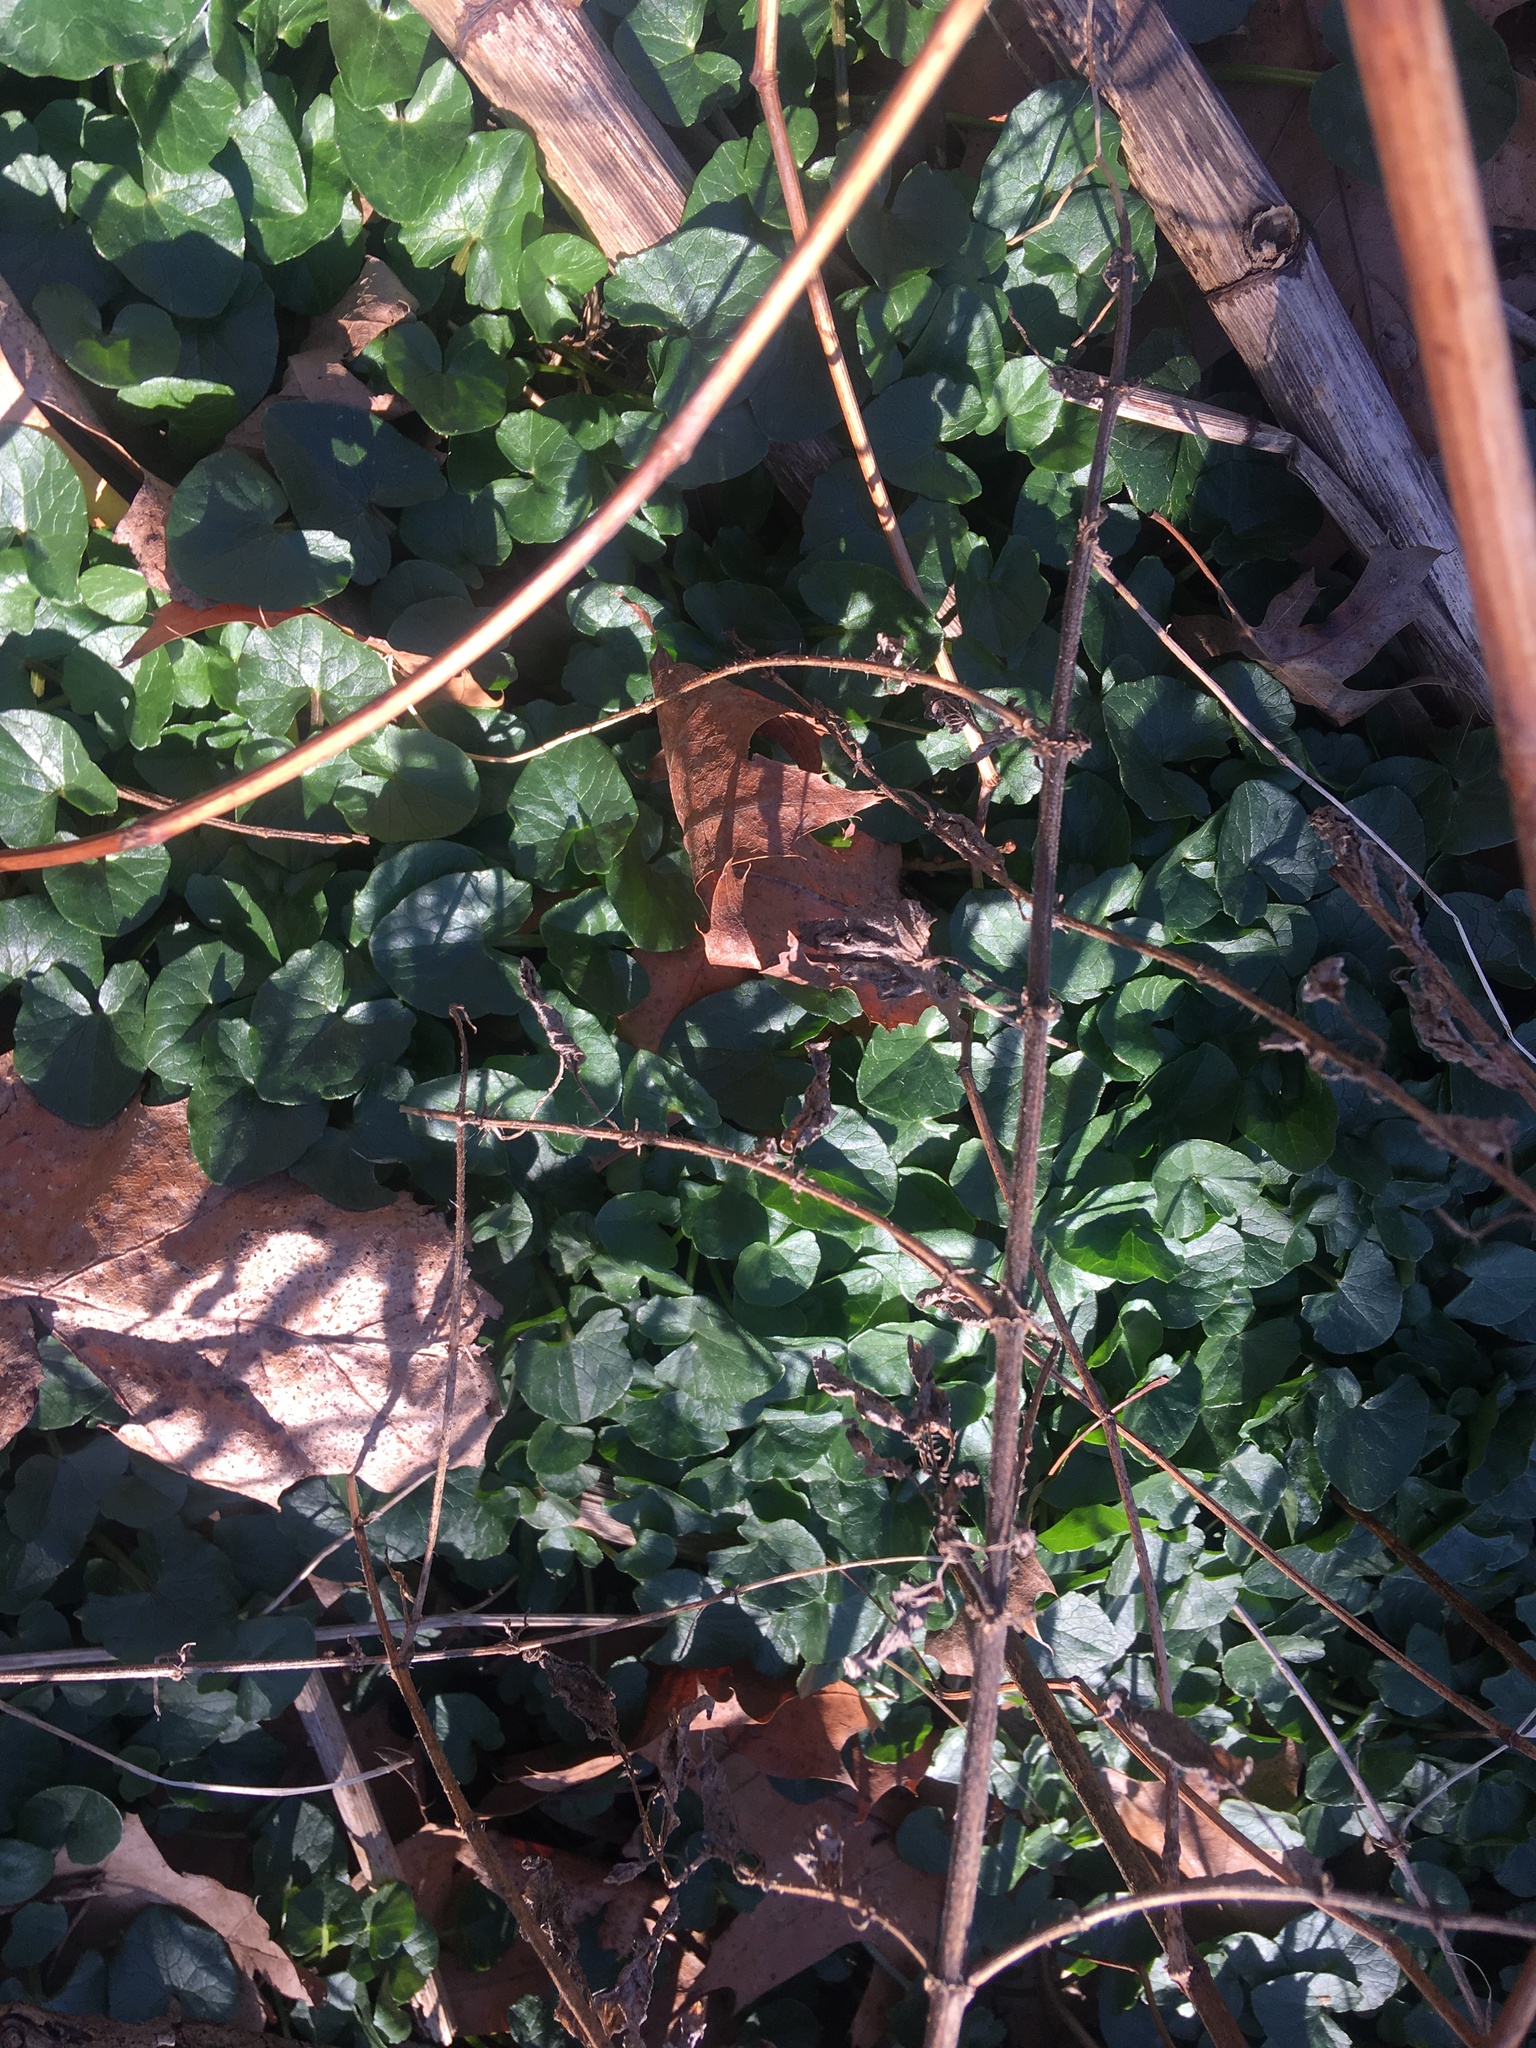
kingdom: Plantae
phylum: Tracheophyta
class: Magnoliopsida
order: Ranunculales
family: Ranunculaceae
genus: Ficaria
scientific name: Ficaria verna
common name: Lesser celandine
